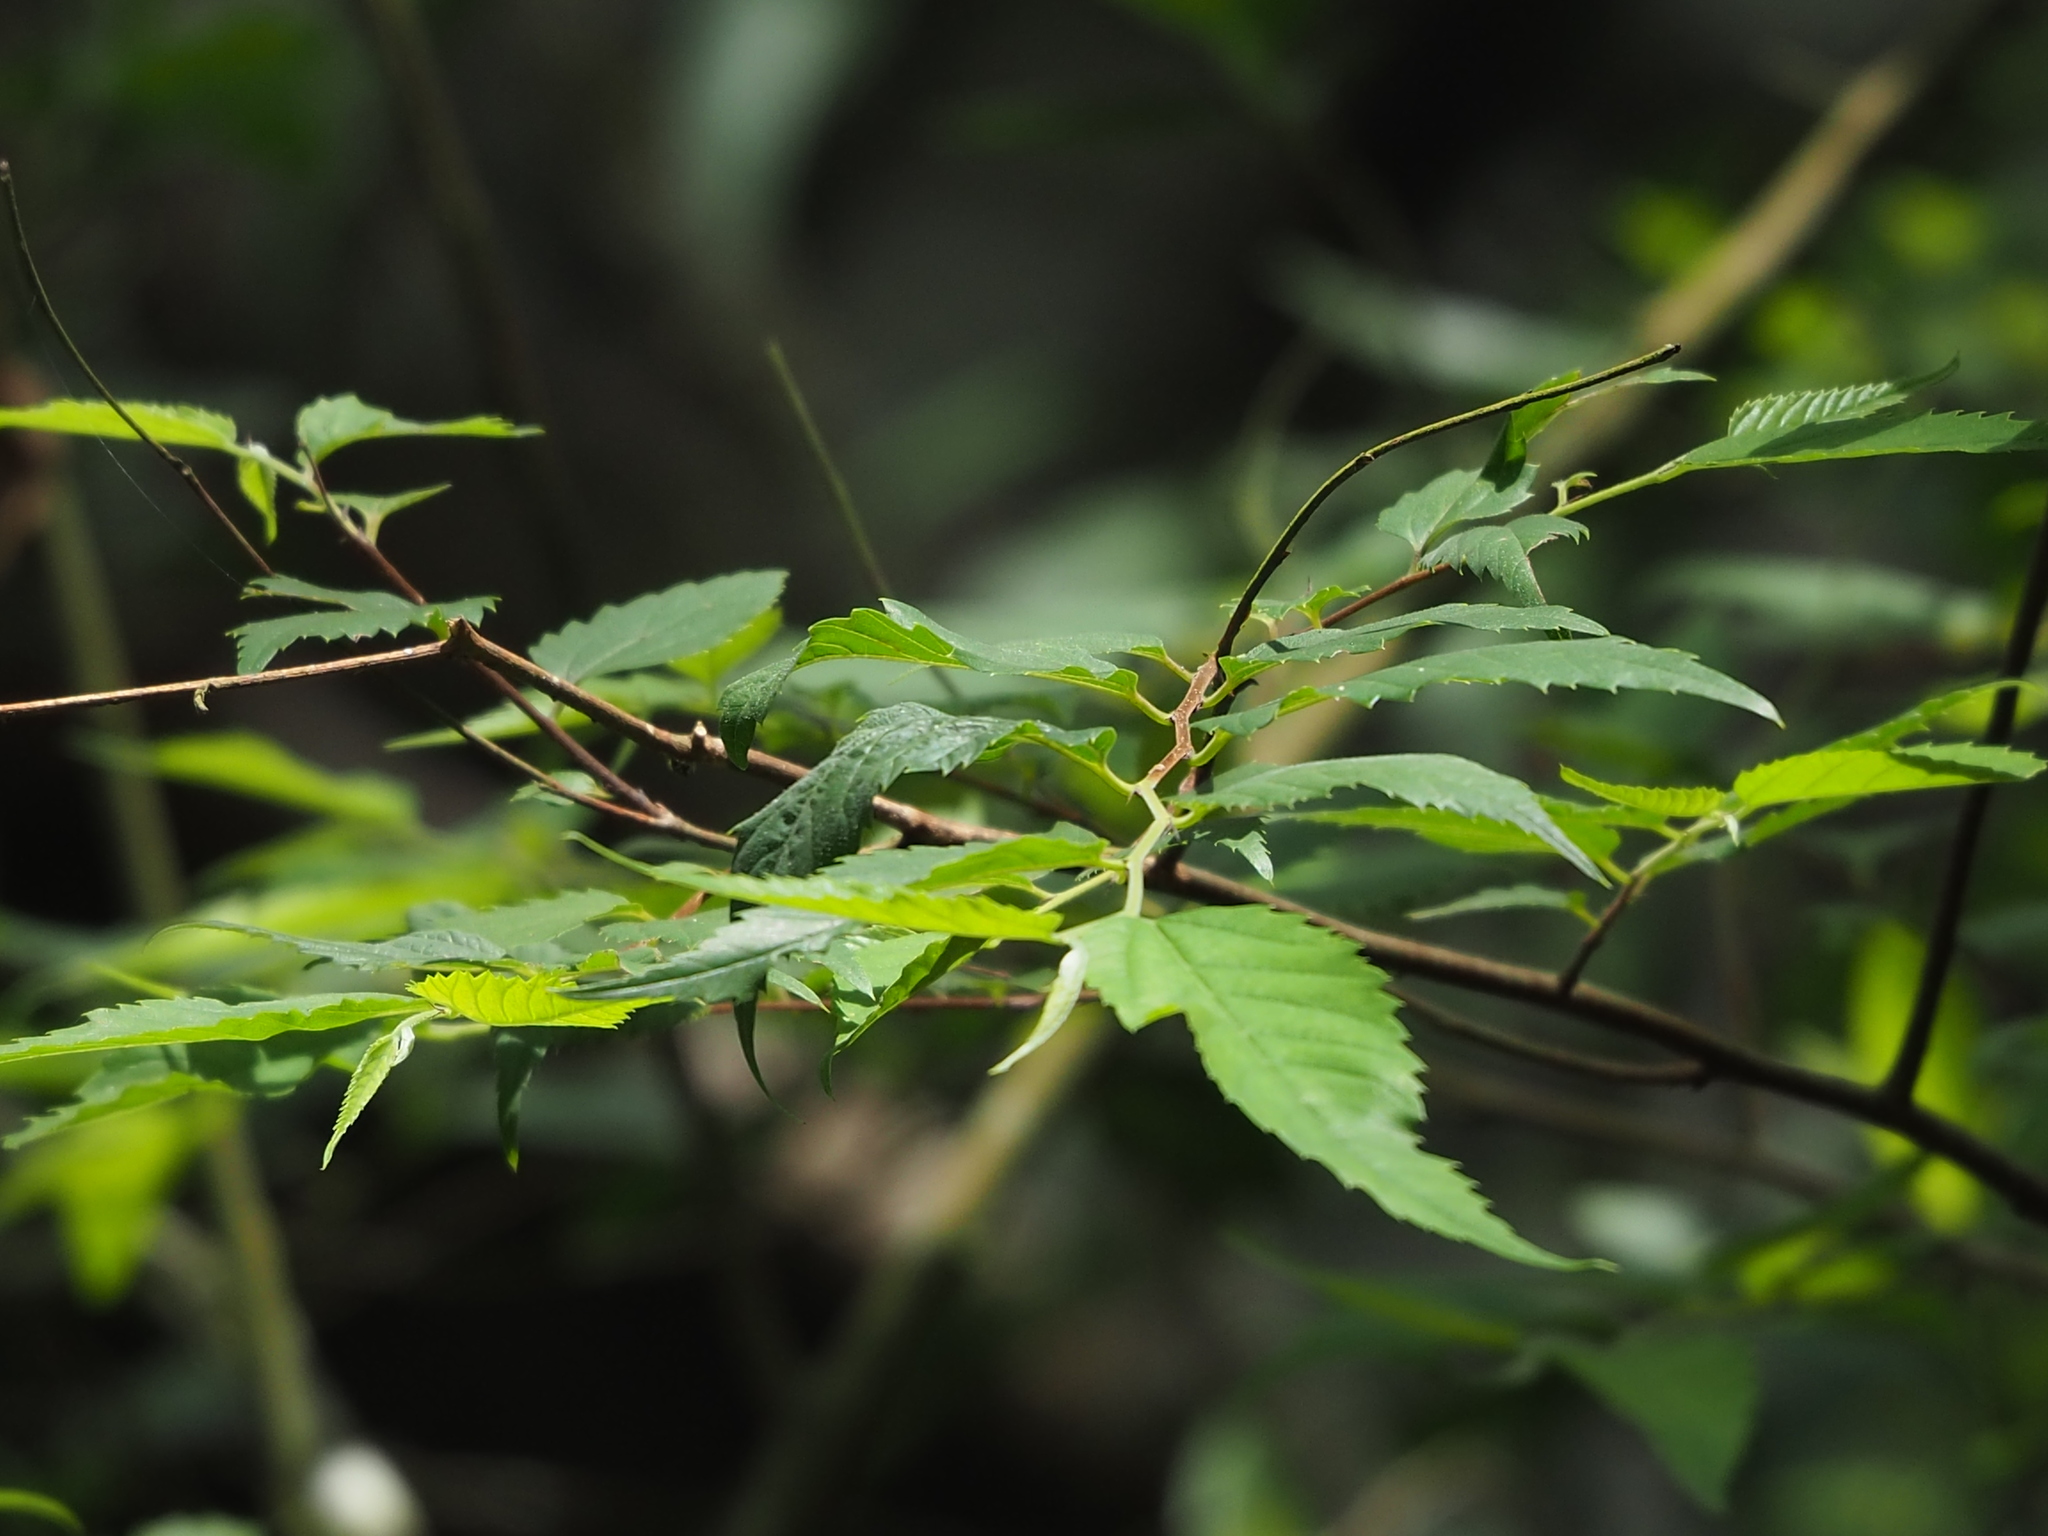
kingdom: Plantae
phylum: Tracheophyta
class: Magnoliopsida
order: Rosales
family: Ulmaceae
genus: Zelkova
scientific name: Zelkova serrata
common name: Japanese zelkova
